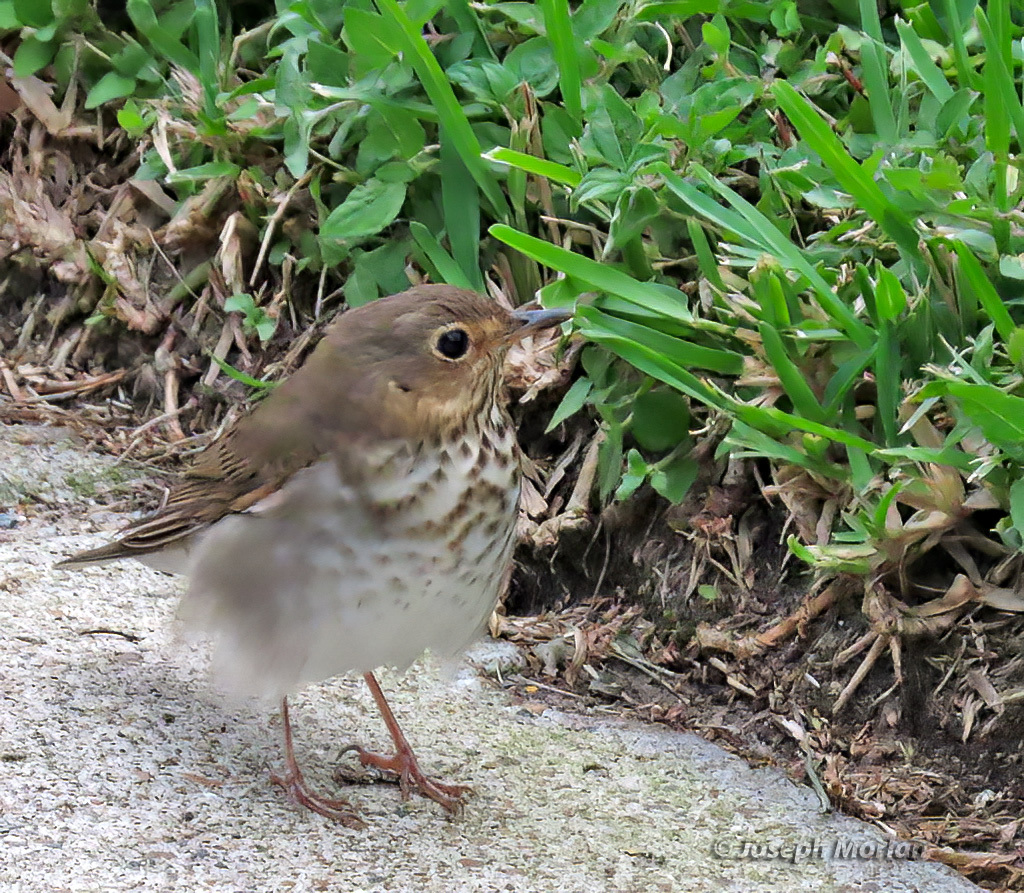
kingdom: Animalia
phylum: Chordata
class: Aves
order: Passeriformes
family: Turdidae
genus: Catharus
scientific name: Catharus ustulatus
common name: Swainson's thrush
